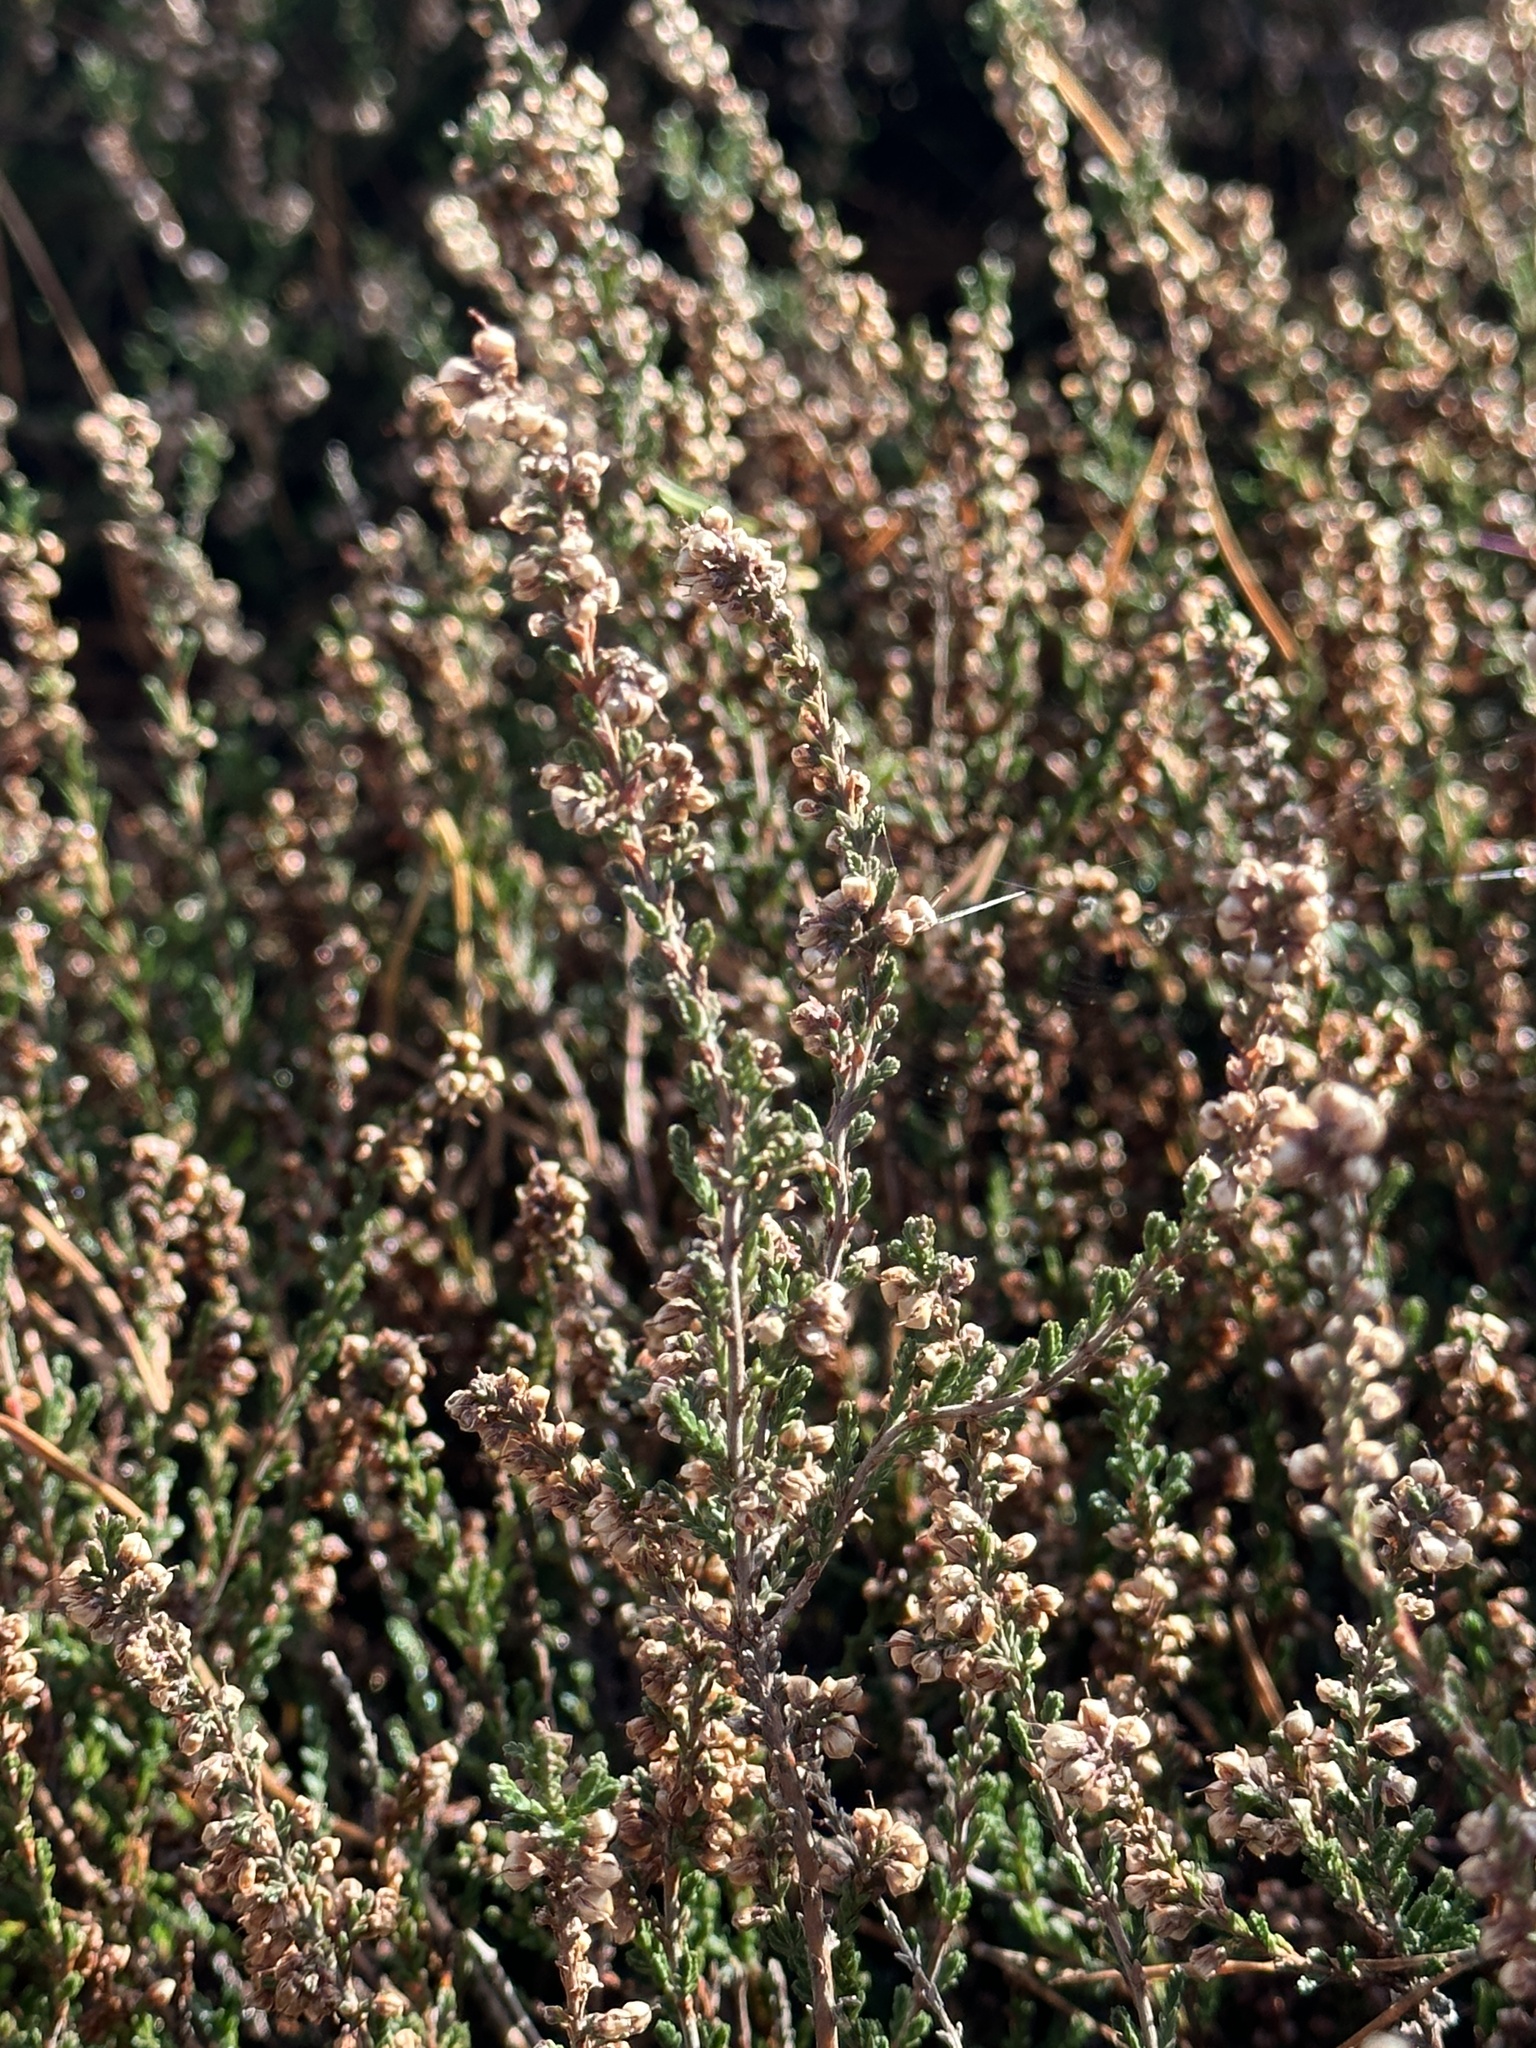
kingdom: Plantae
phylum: Tracheophyta
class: Magnoliopsida
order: Ericales
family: Ericaceae
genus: Calluna
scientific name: Calluna vulgaris
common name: Heather
